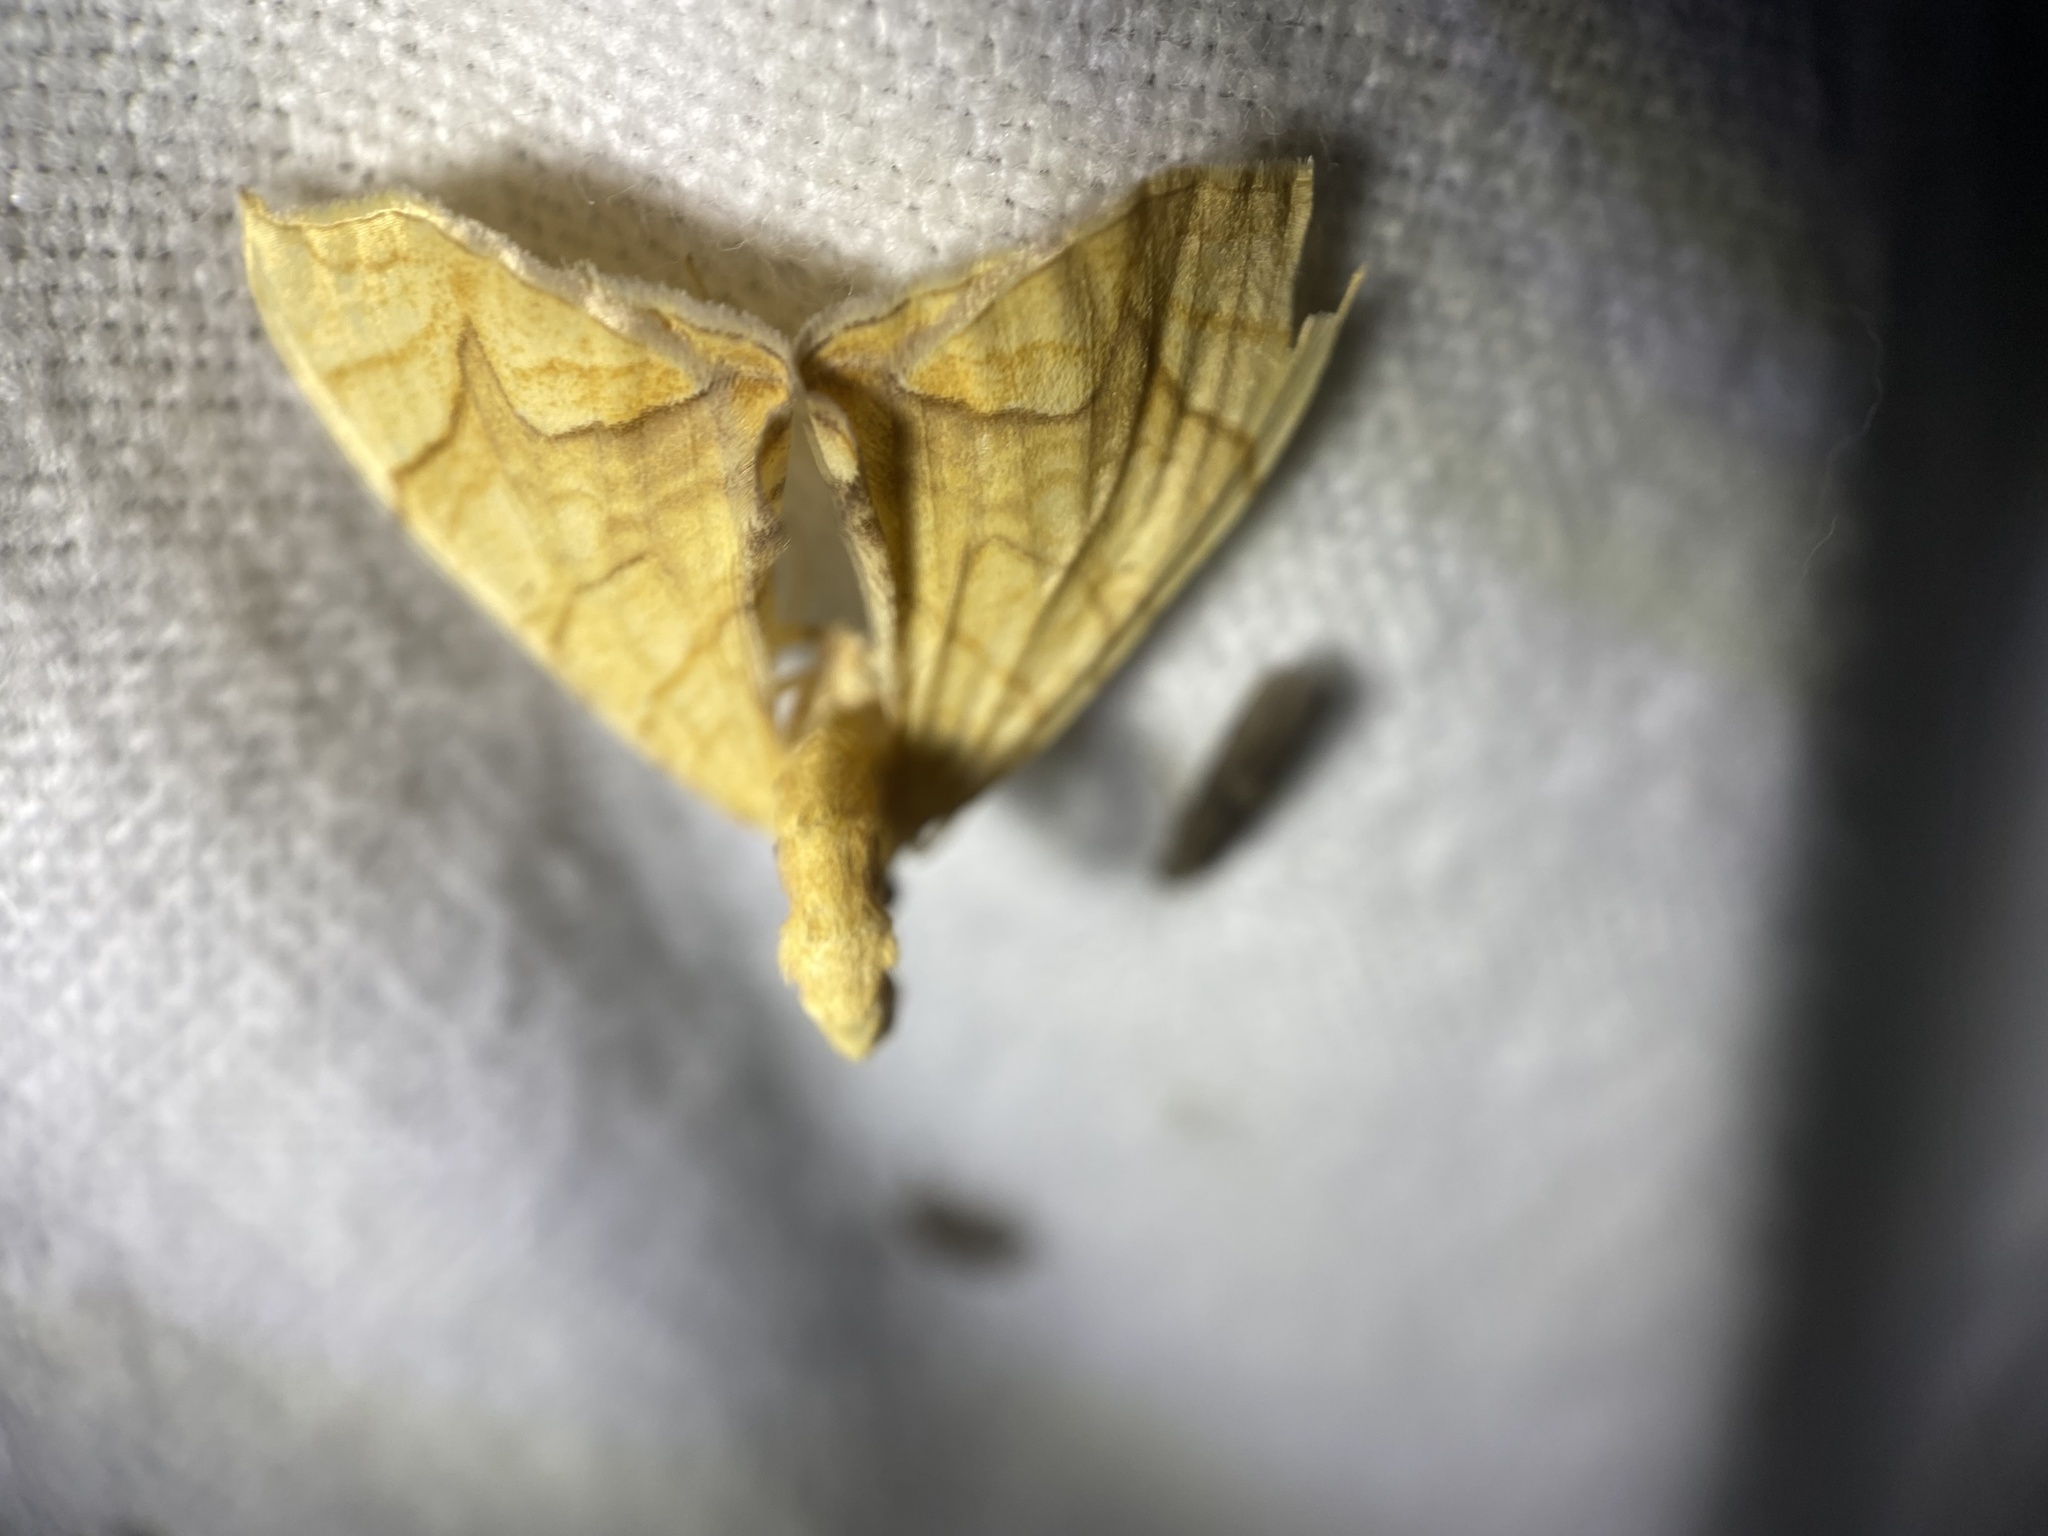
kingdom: Animalia
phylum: Arthropoda
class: Insecta
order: Lepidoptera
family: Geometridae
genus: Eulithis
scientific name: Eulithis
